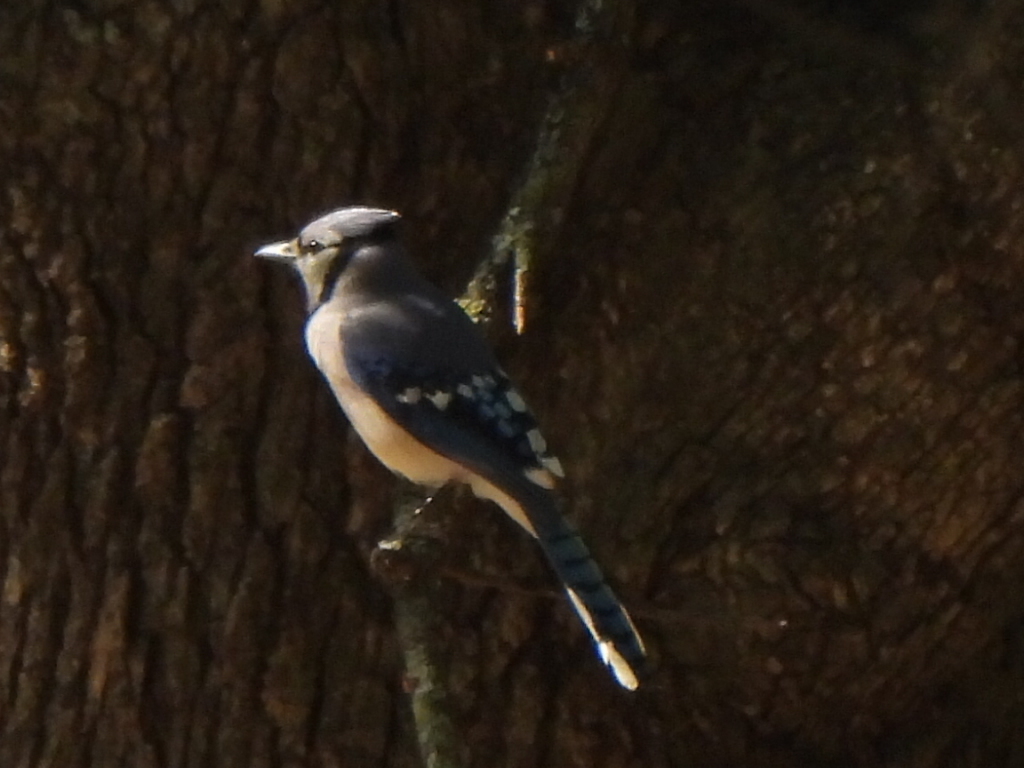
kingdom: Animalia
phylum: Chordata
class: Aves
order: Passeriformes
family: Corvidae
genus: Cyanocitta
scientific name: Cyanocitta cristata
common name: Blue jay
